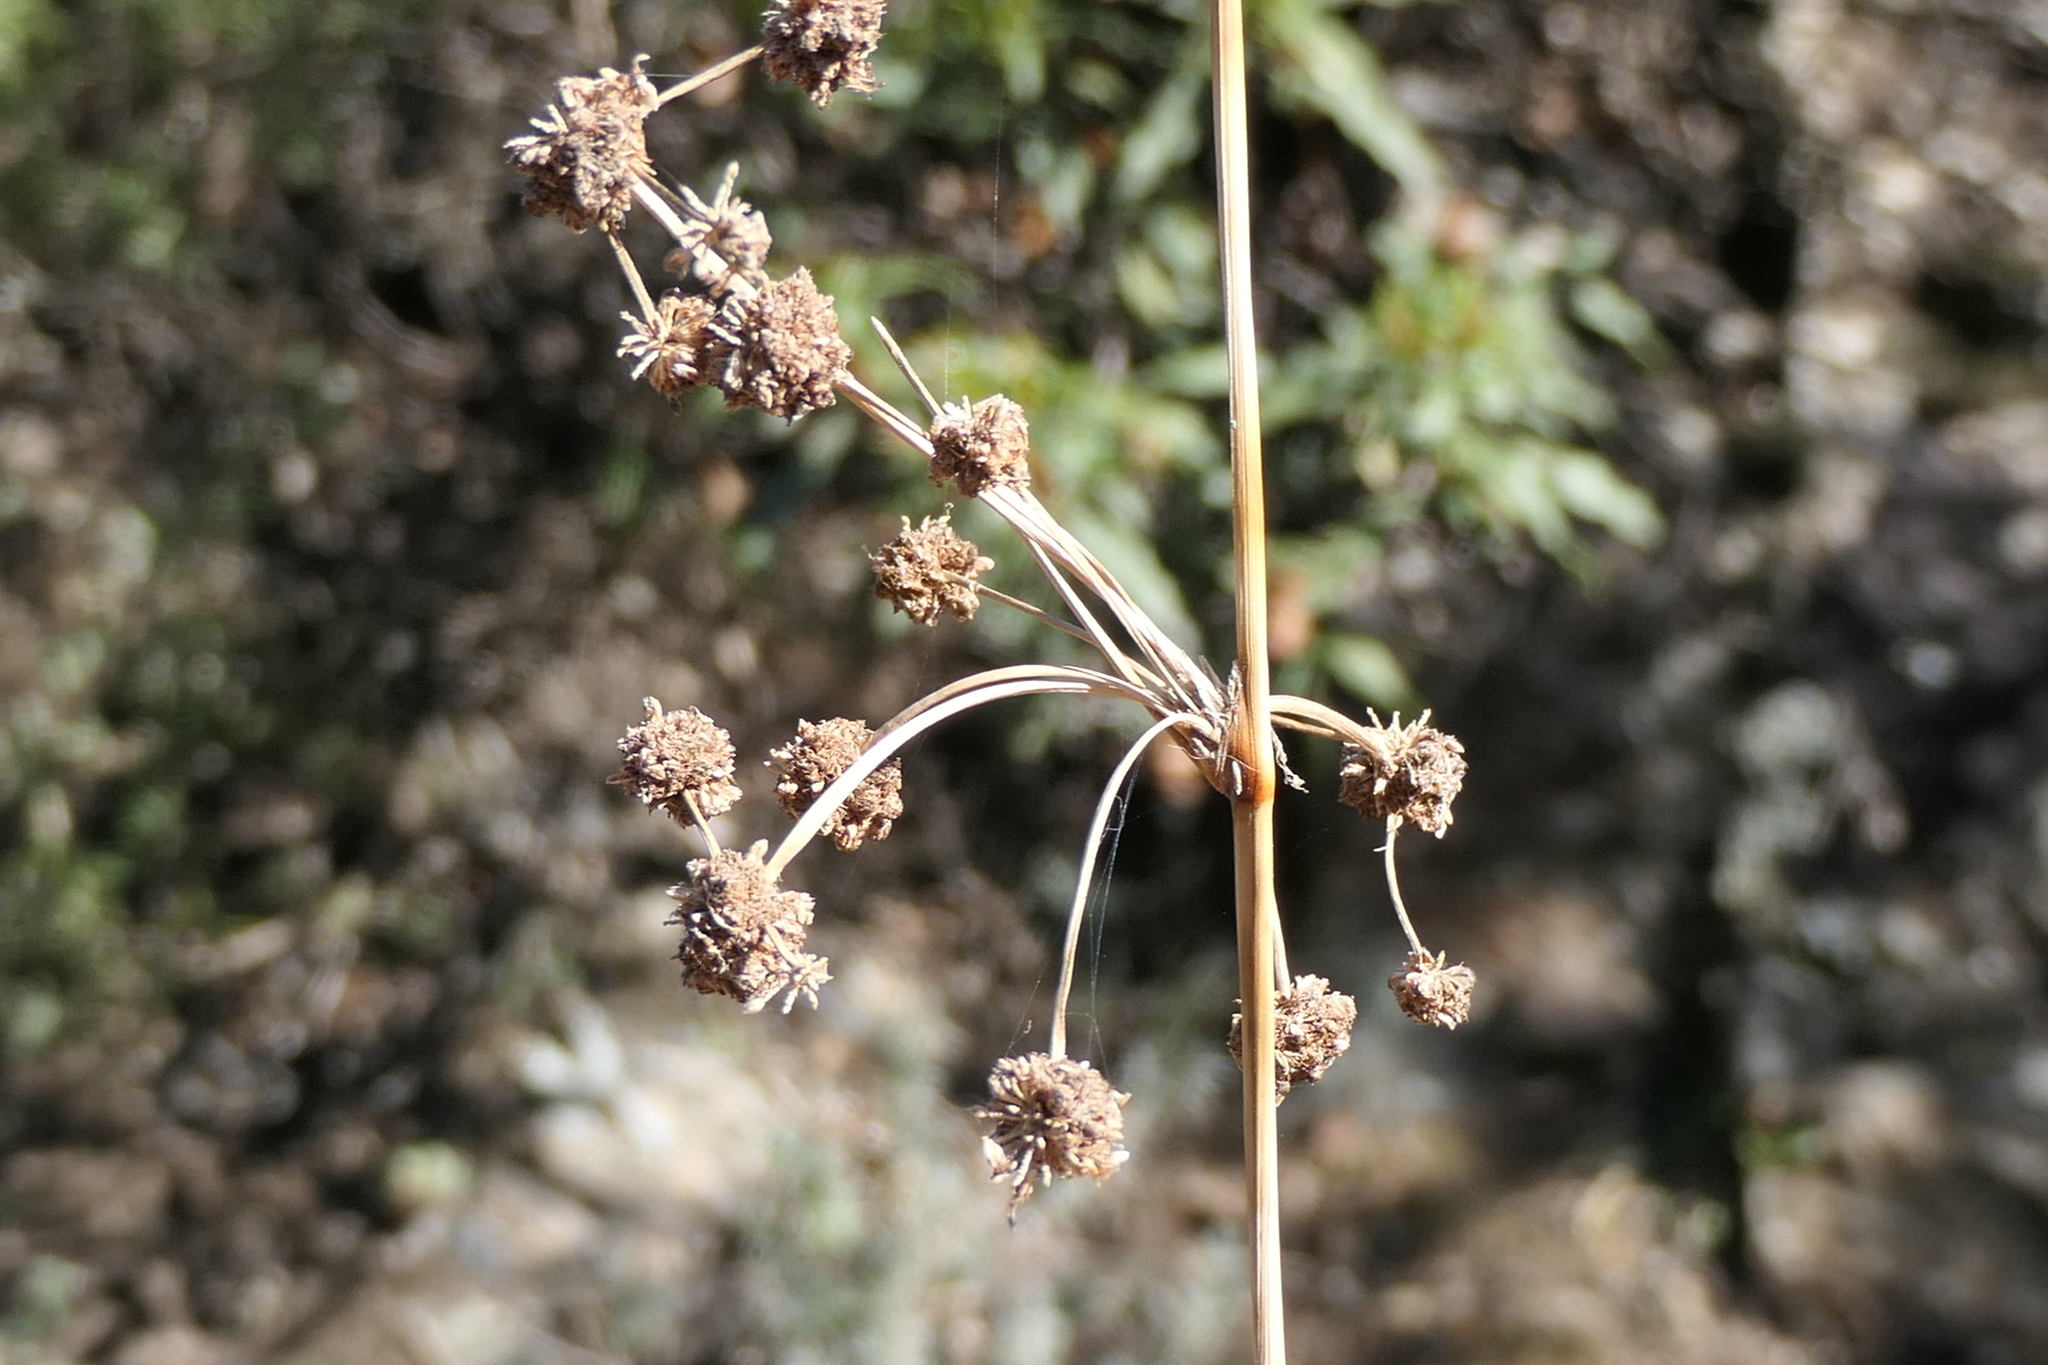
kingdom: Plantae
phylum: Tracheophyta
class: Liliopsida
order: Poales
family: Cyperaceae
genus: Scirpoides
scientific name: Scirpoides holoschoenus
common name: Round-headed club-rush
